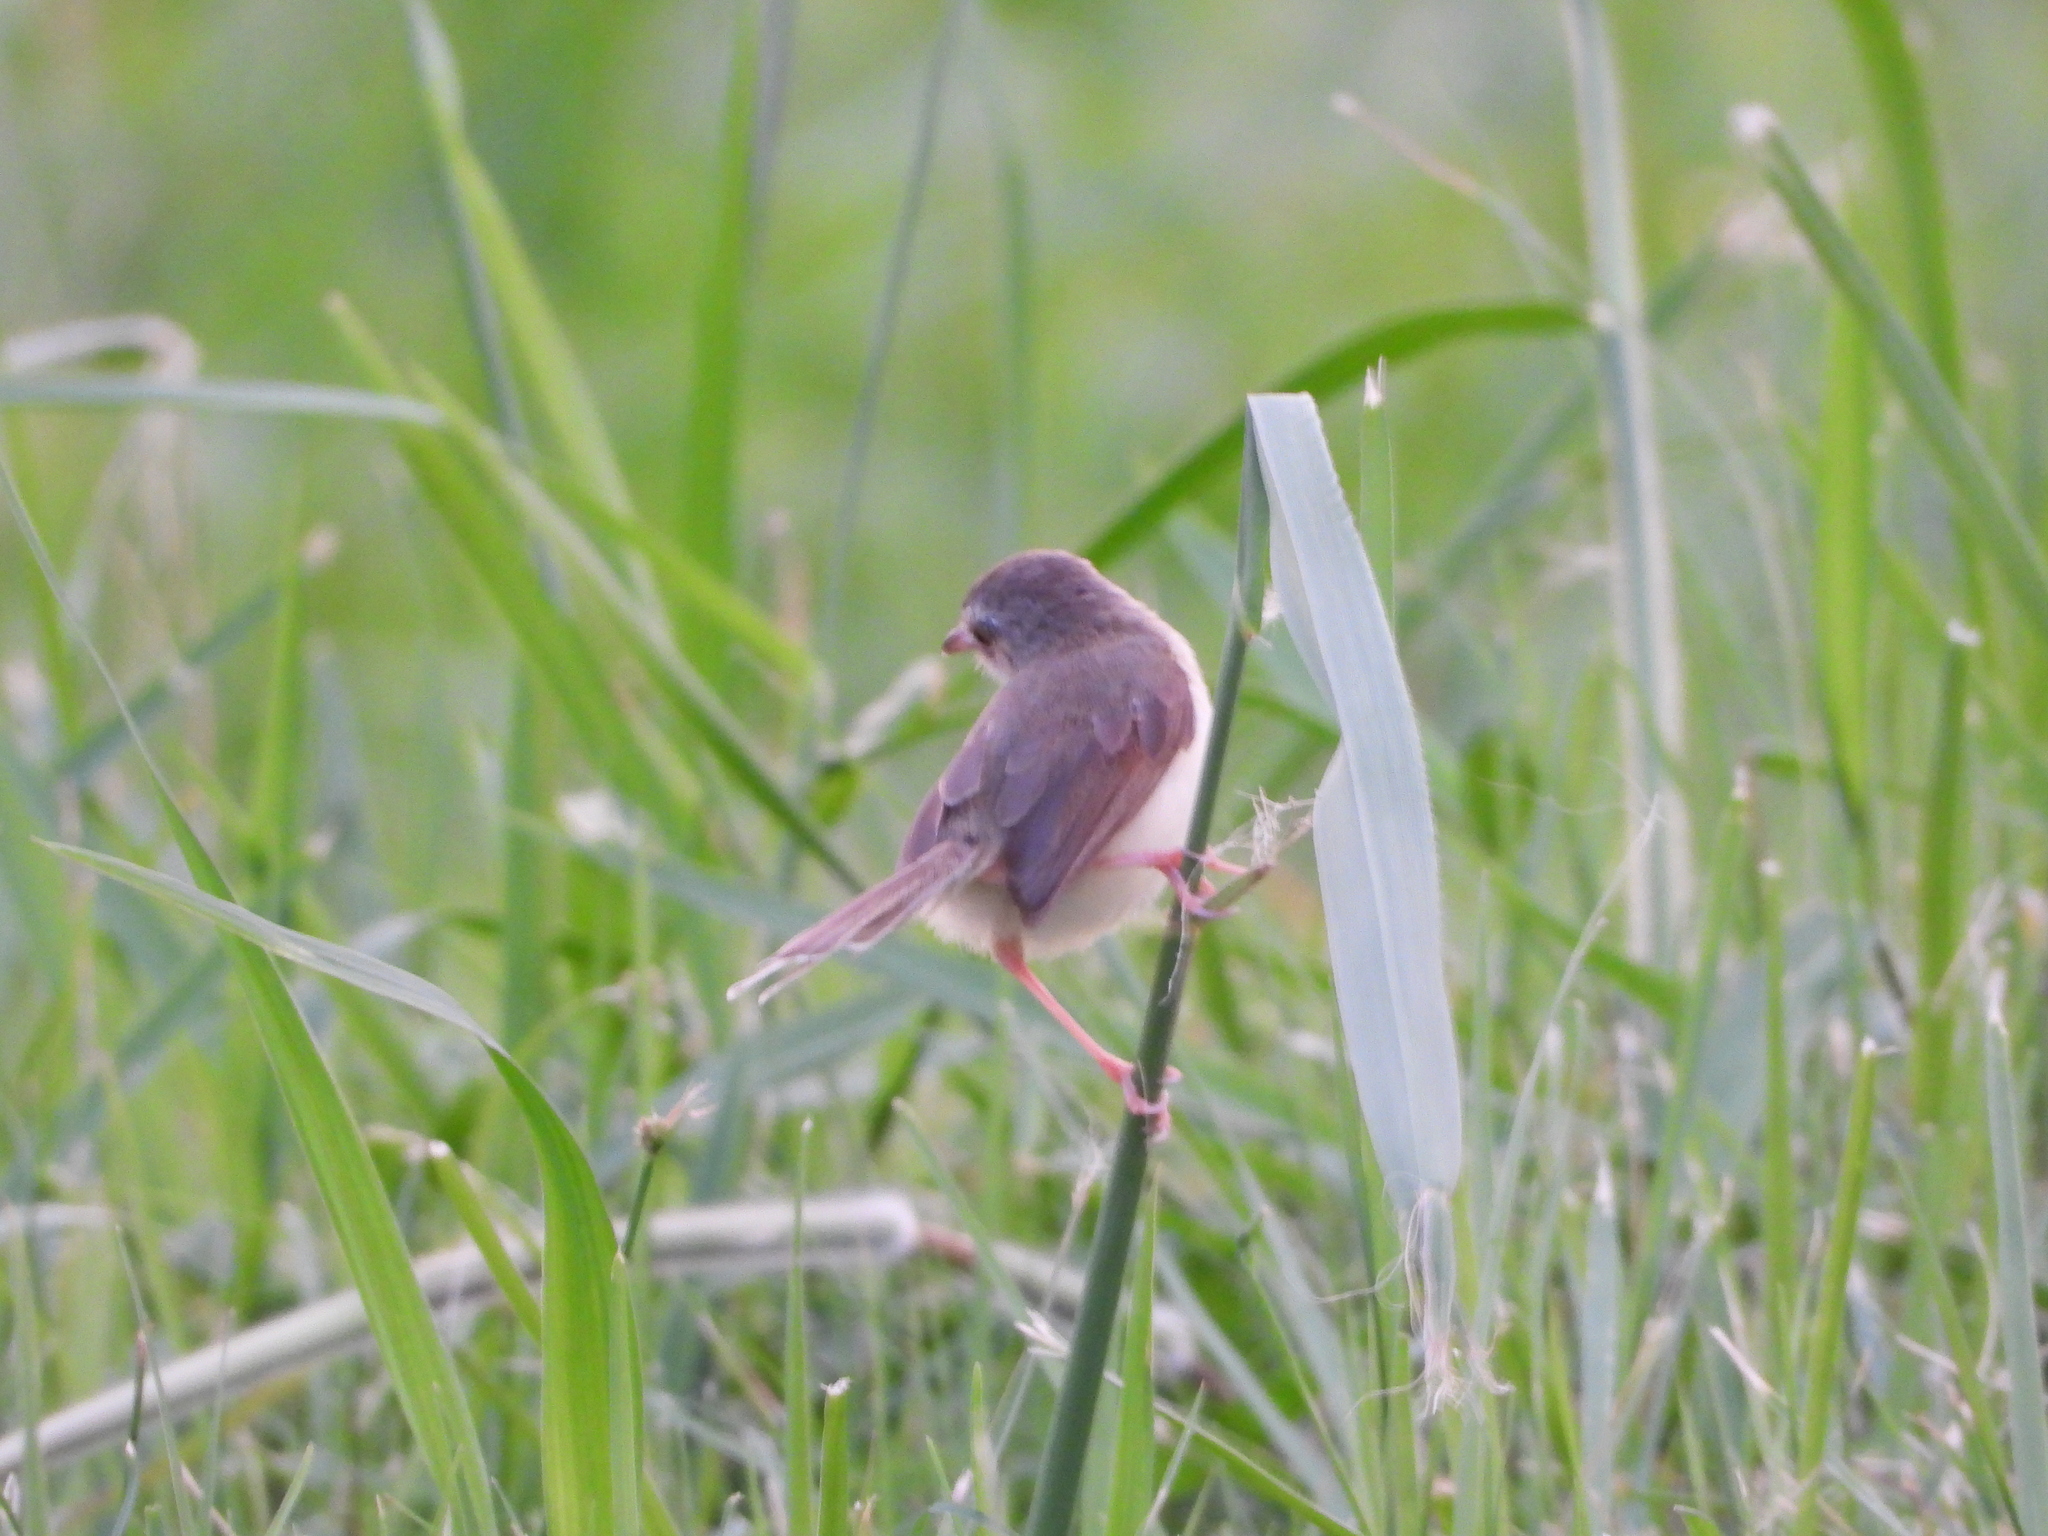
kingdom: Animalia
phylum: Chordata
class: Aves
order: Passeriformes
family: Cisticolidae
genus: Prinia
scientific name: Prinia inornata
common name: Plain prinia
